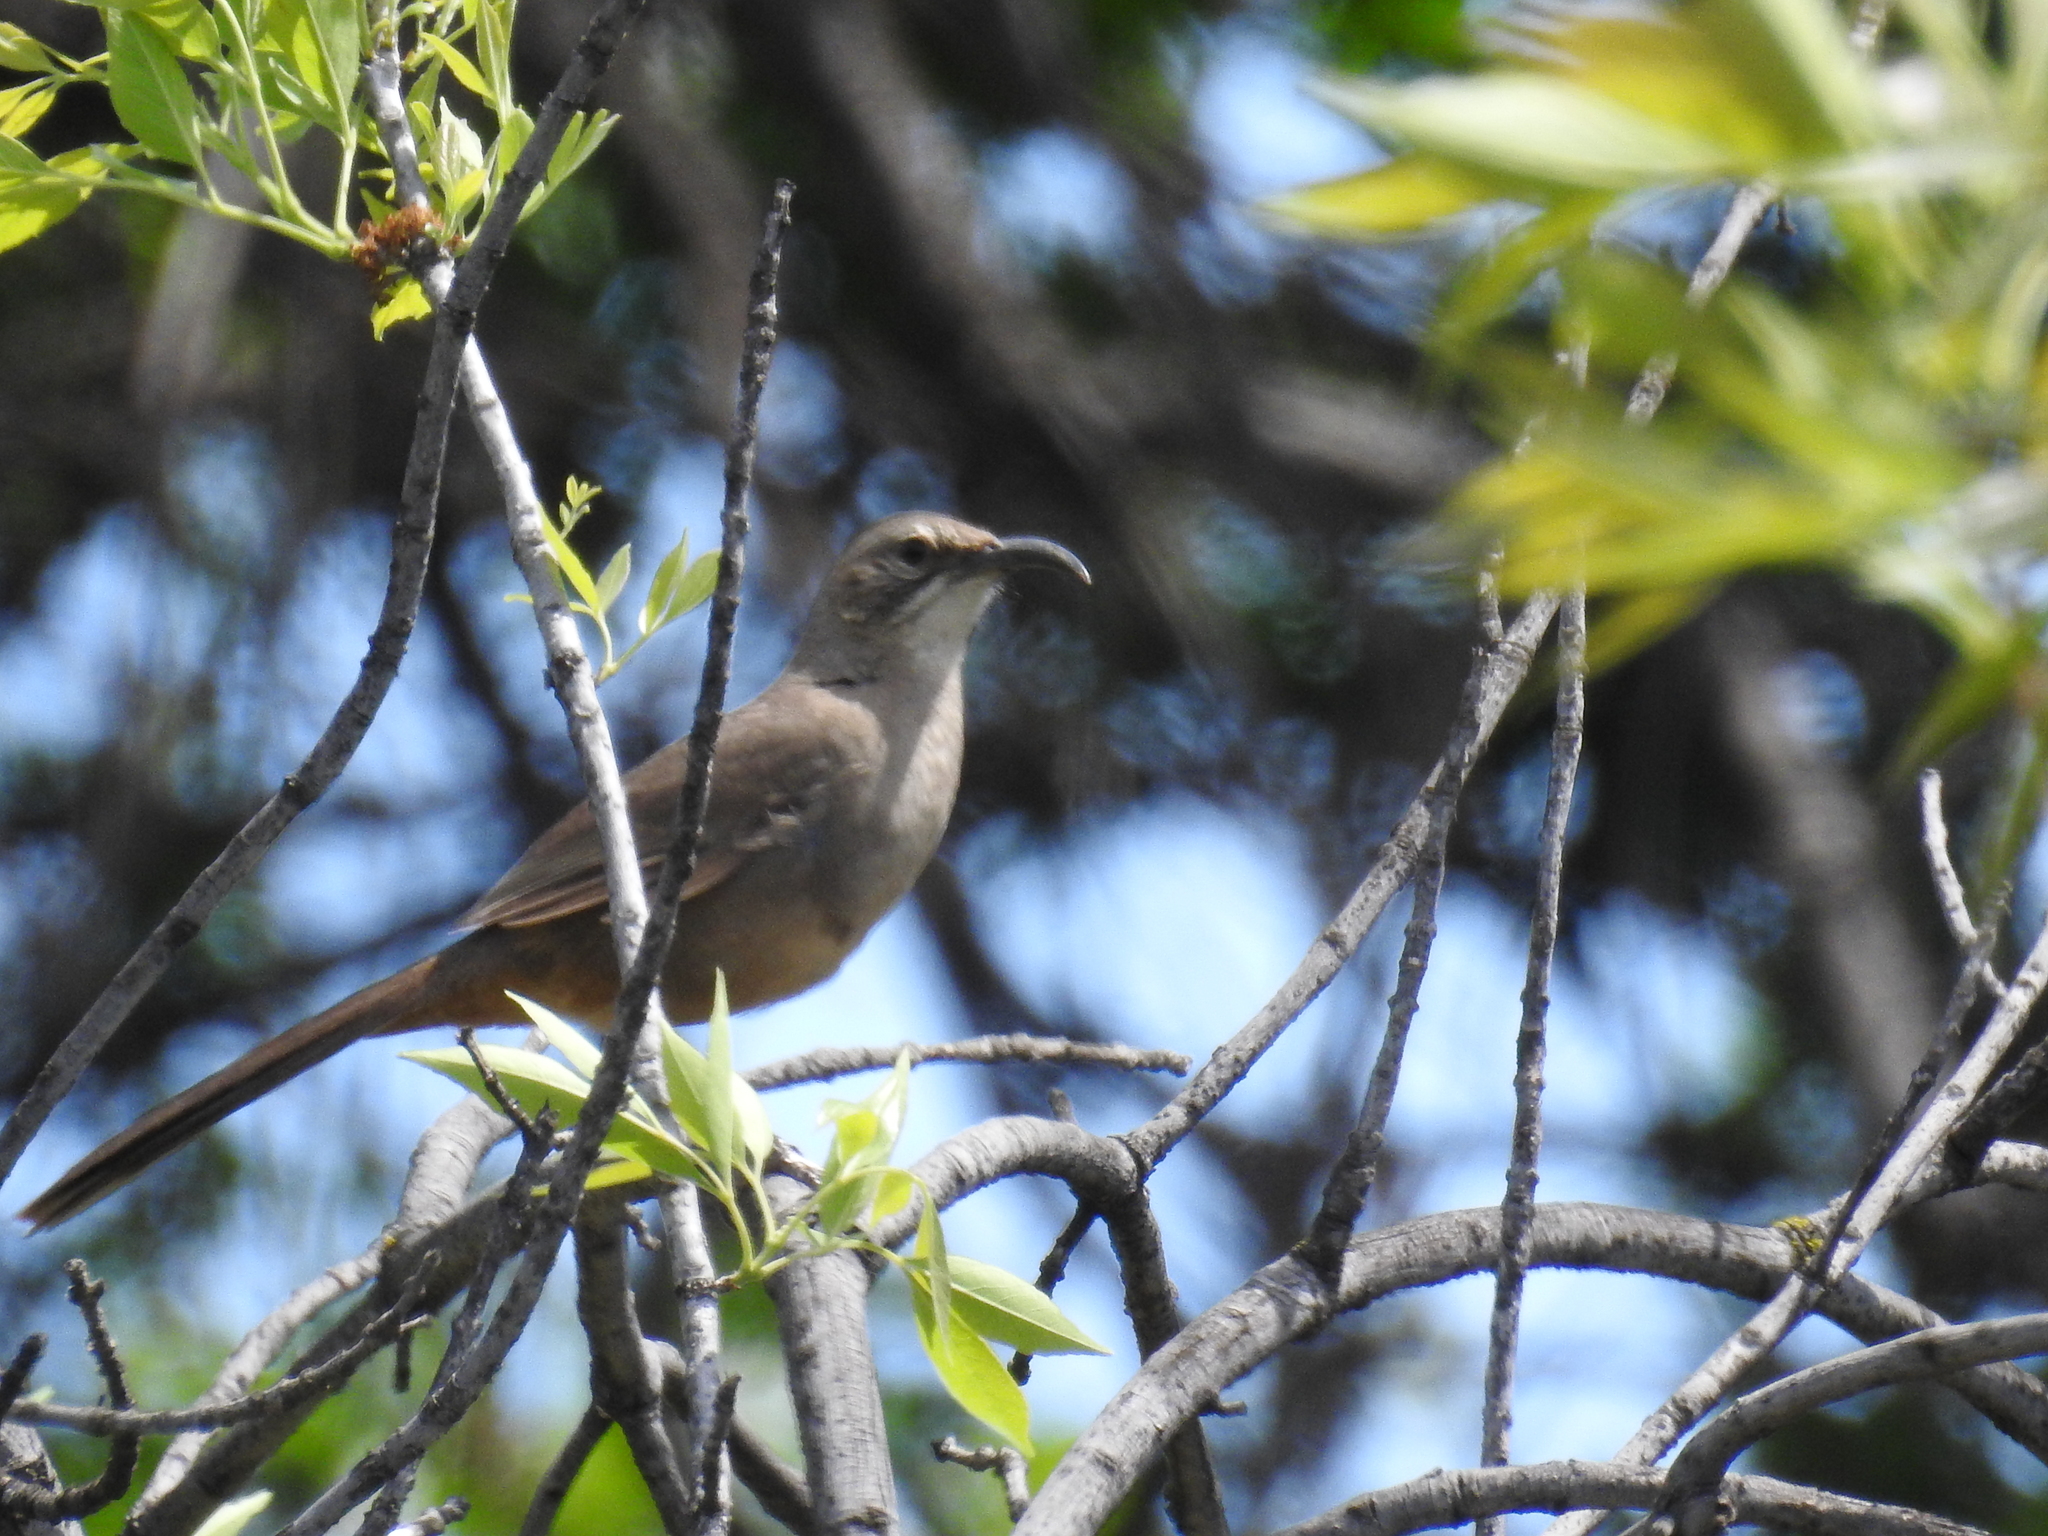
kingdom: Animalia
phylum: Chordata
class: Aves
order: Passeriformes
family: Mimidae
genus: Toxostoma
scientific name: Toxostoma redivivum
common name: California thrasher
